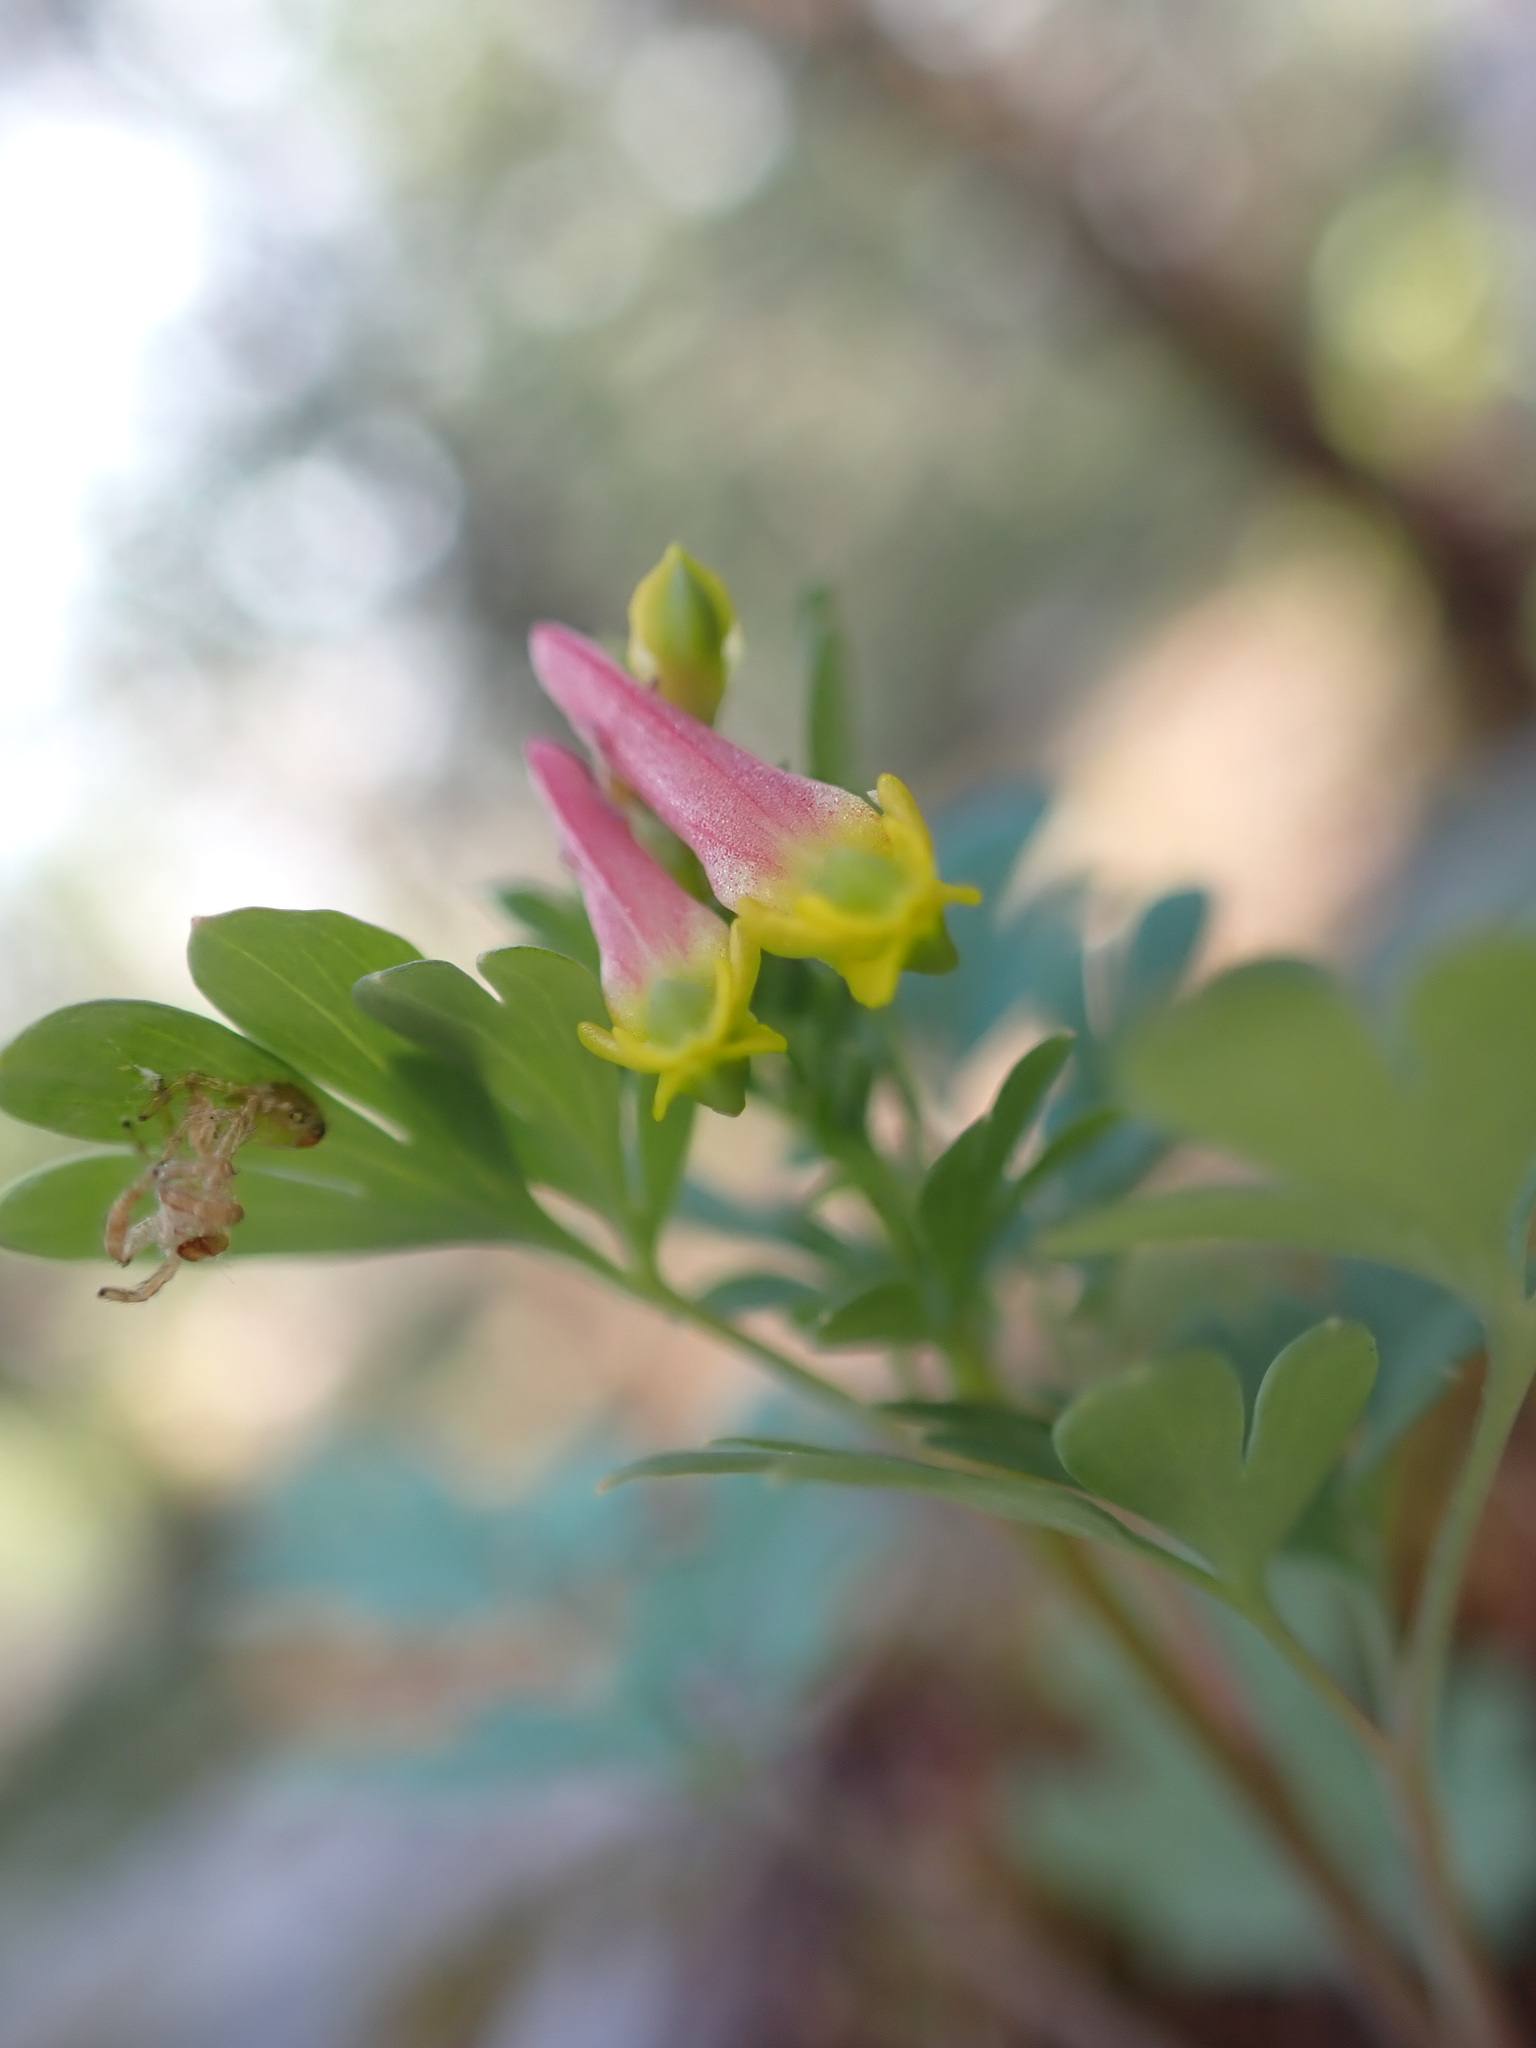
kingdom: Plantae
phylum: Tracheophyta
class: Magnoliopsida
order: Ranunculales
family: Papaveraceae
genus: Capnoides
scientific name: Capnoides sempervirens
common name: Rock harlequin
